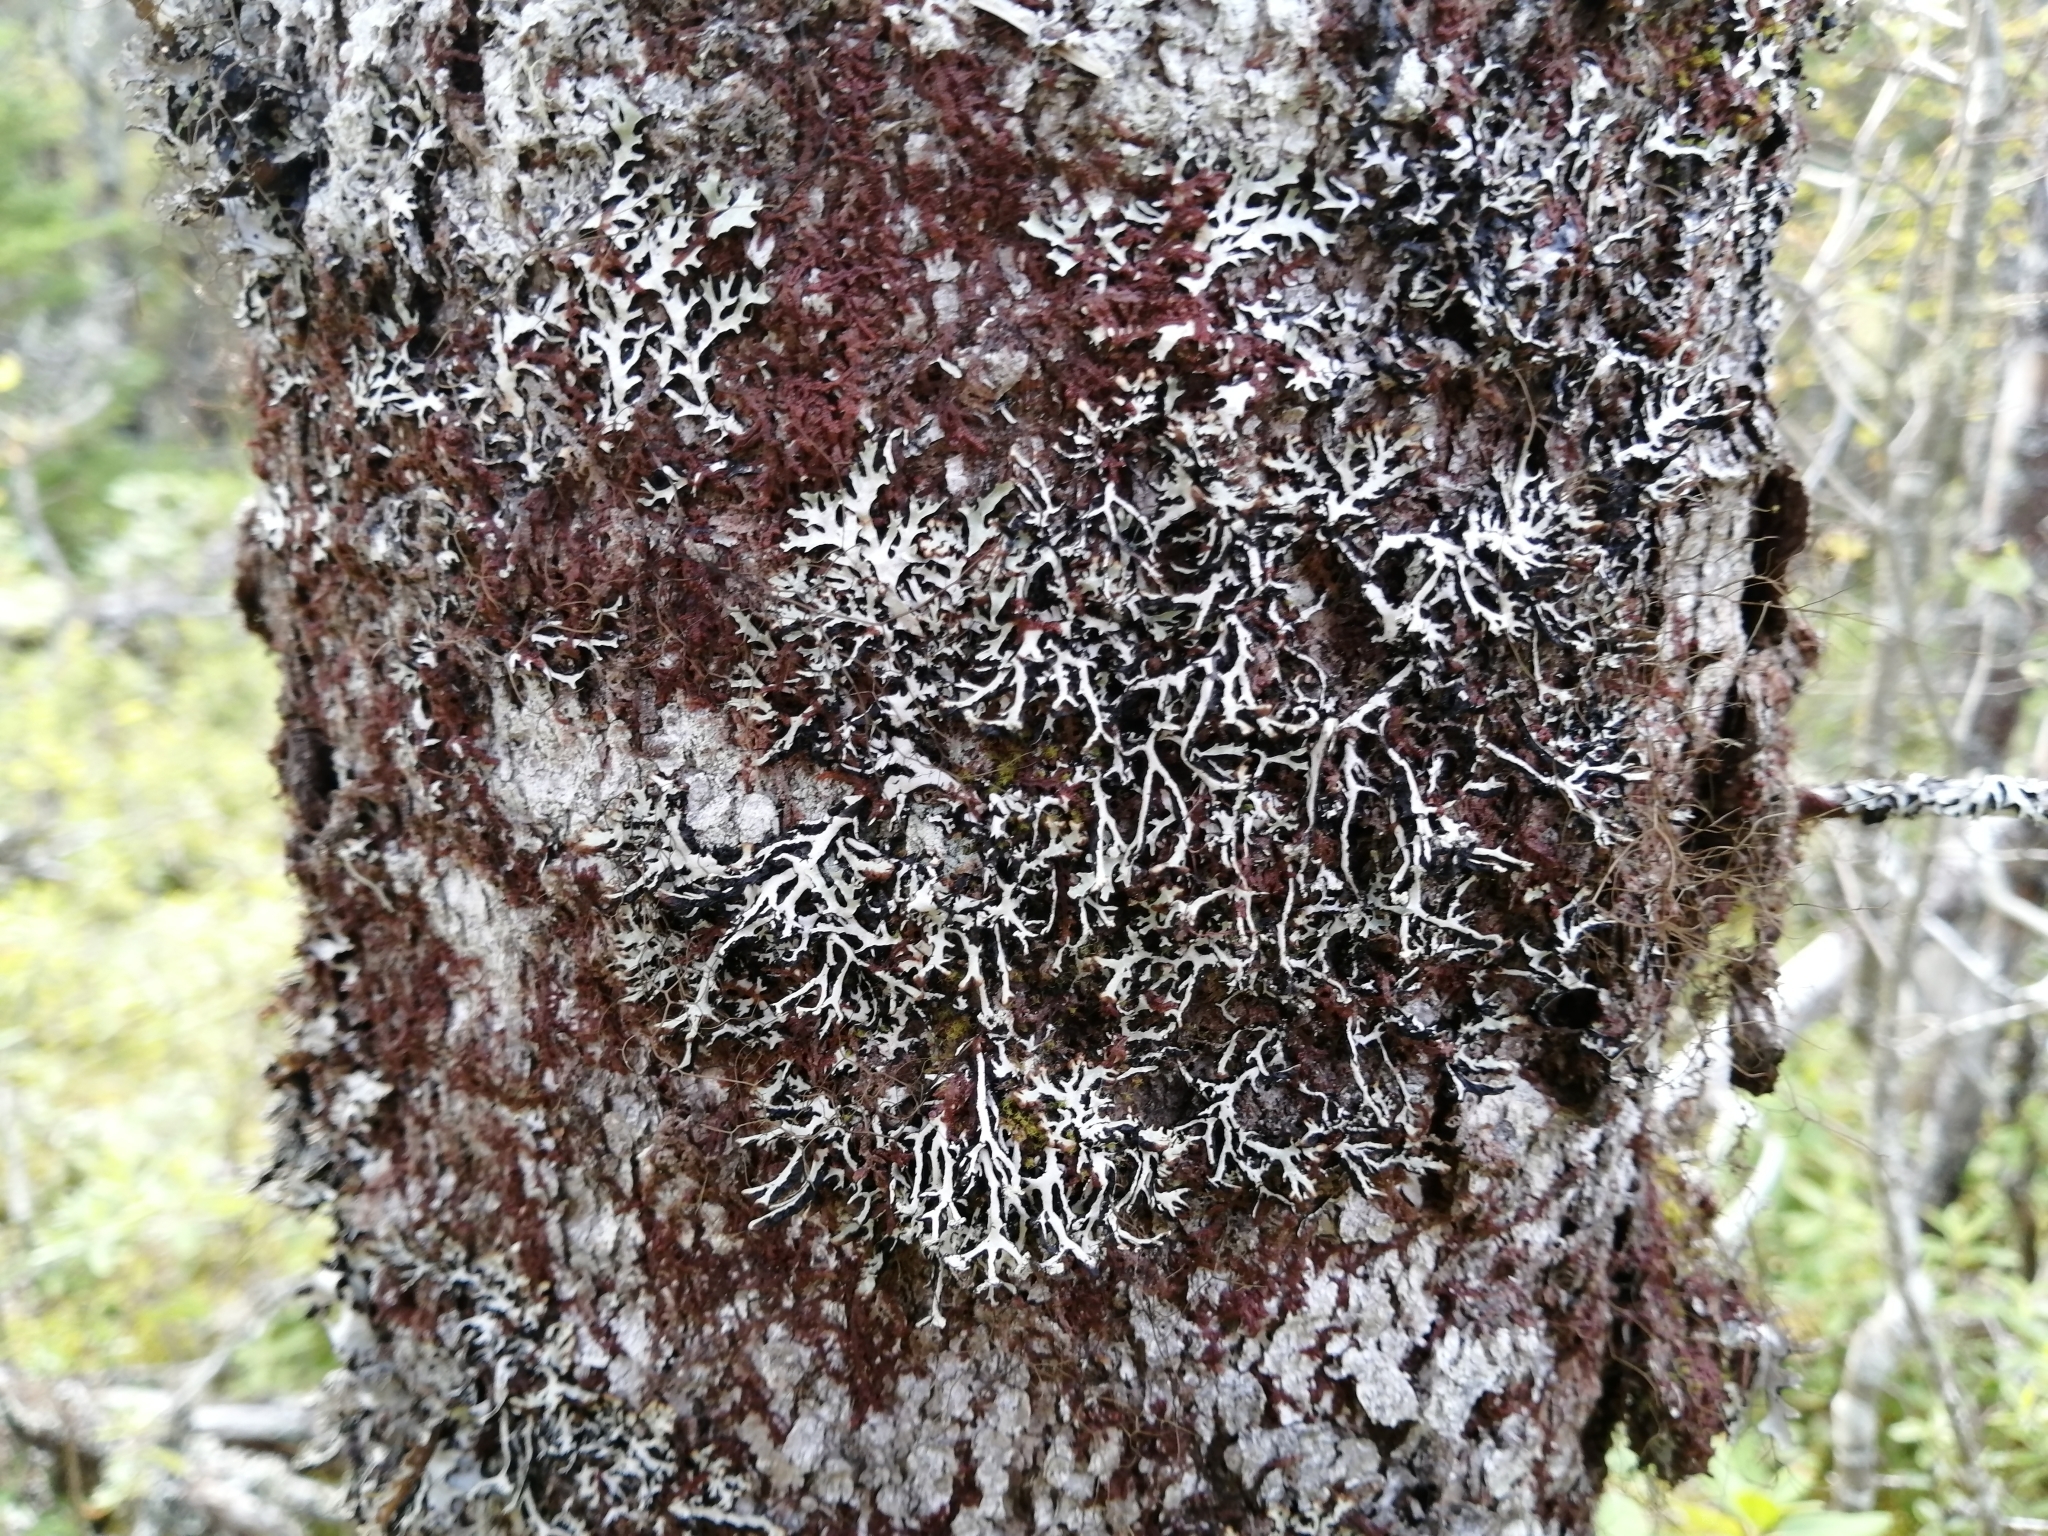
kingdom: Fungi
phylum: Ascomycota
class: Lecanoromycetes
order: Lecanorales
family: Parmeliaceae
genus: Hypogymnia
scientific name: Hypogymnia vittata
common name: Brownish monk's-hood lichen
